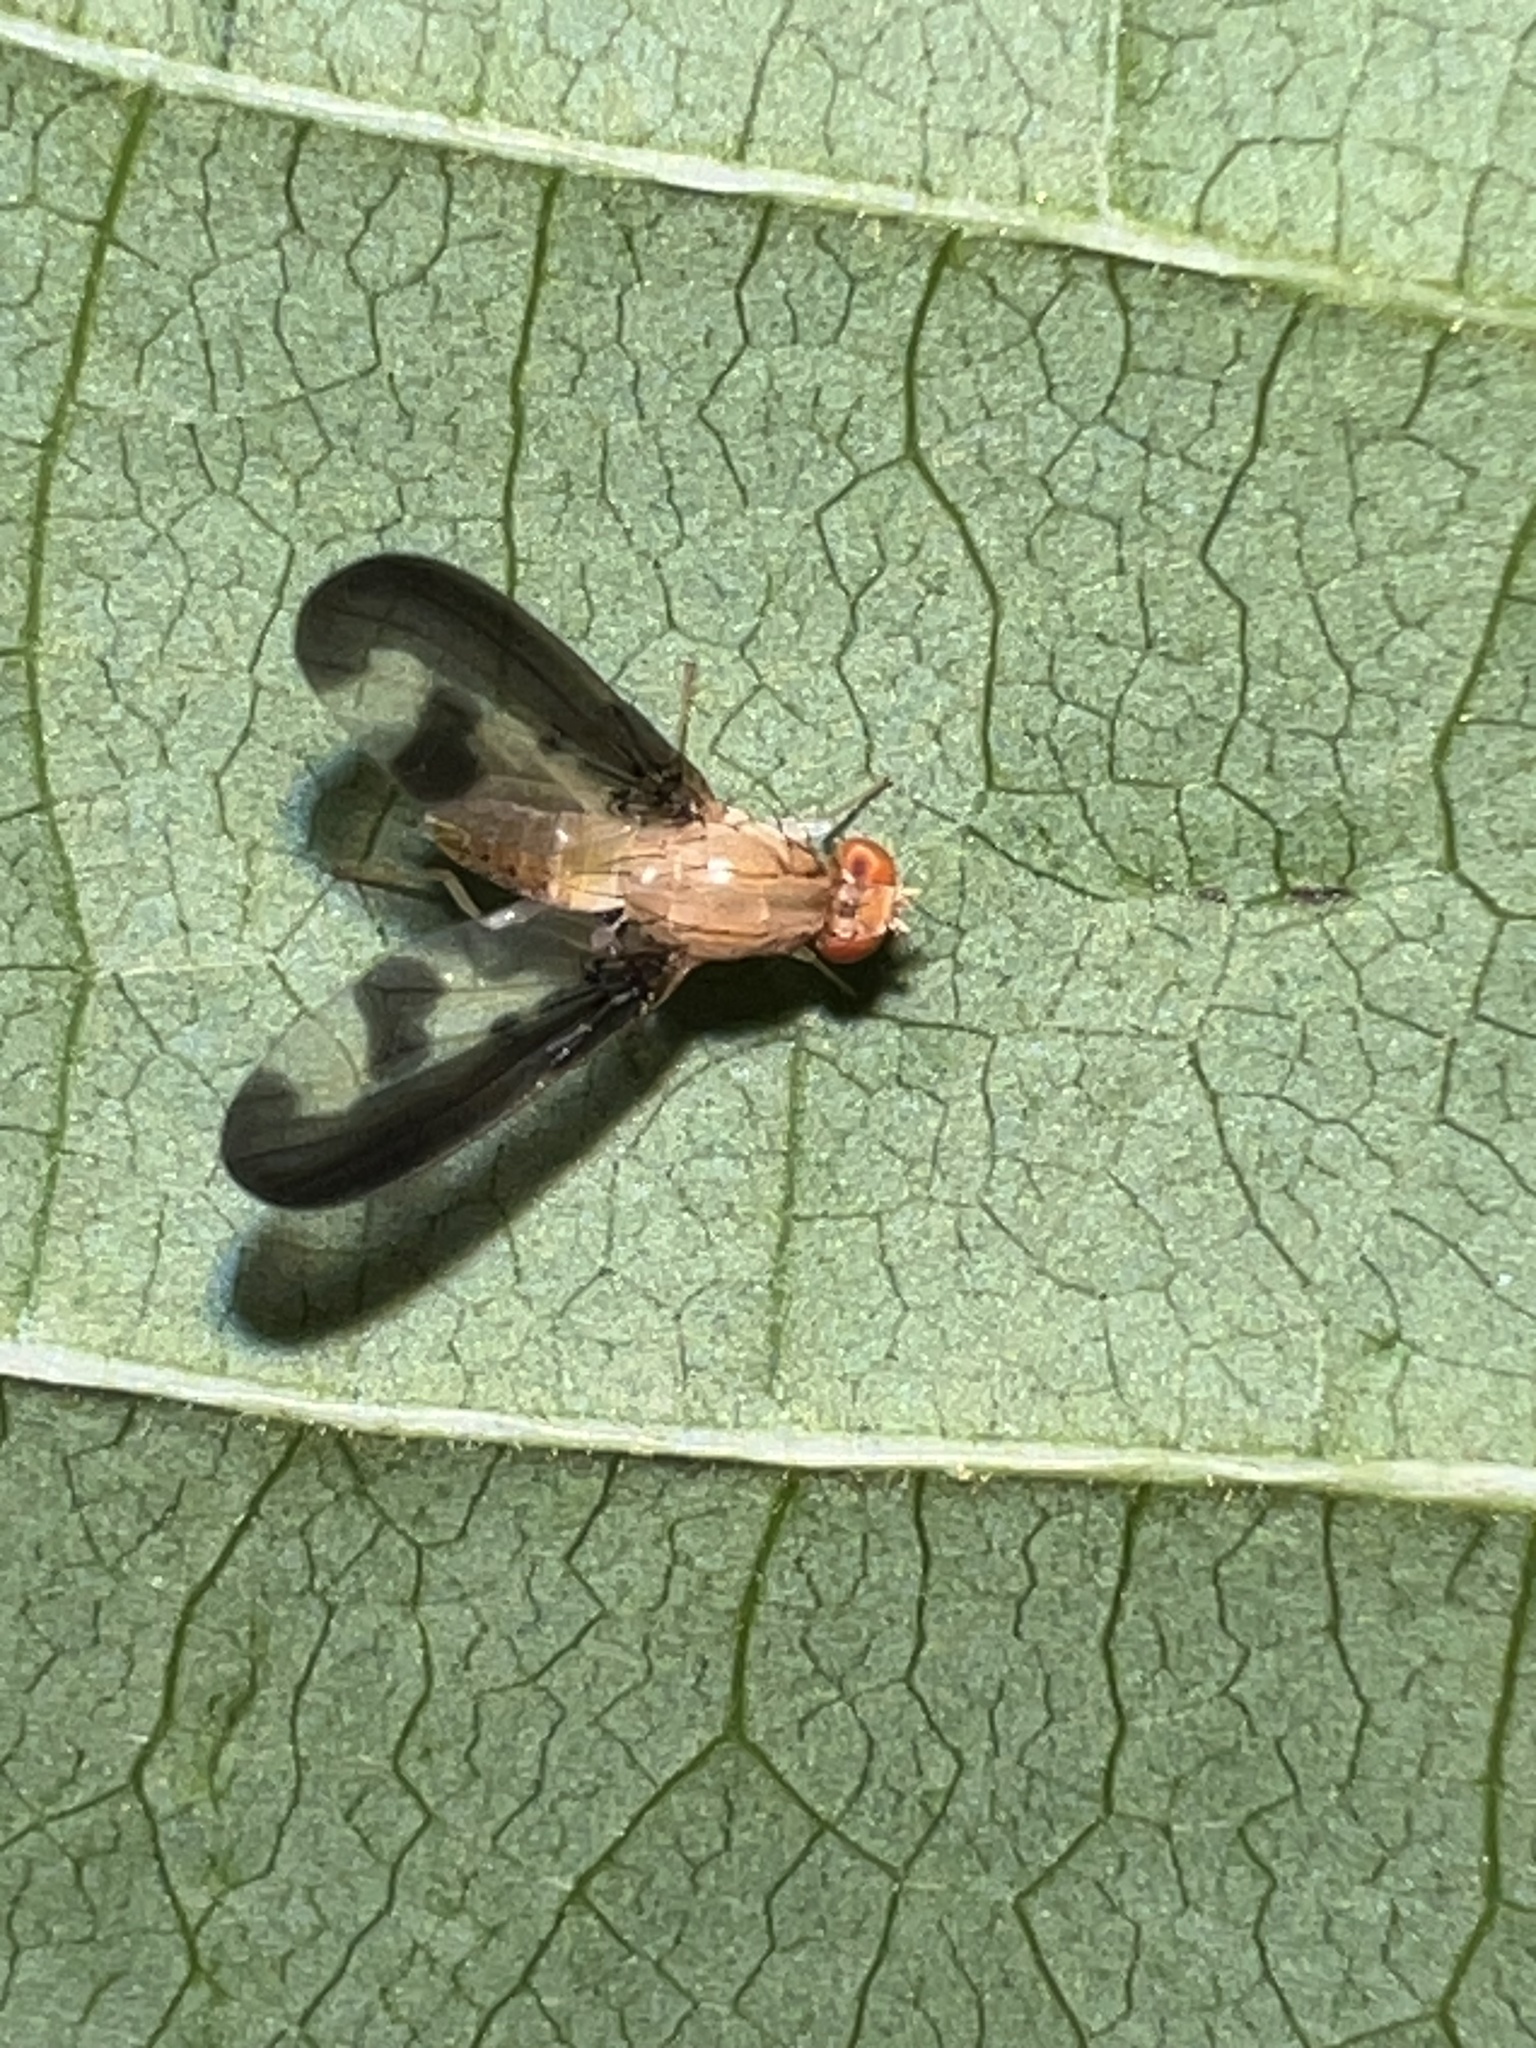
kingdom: Animalia
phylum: Arthropoda
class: Insecta
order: Diptera
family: Pallopteridae
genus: Toxonevra
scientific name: Toxonevra superba
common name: Antlered flutter fly
